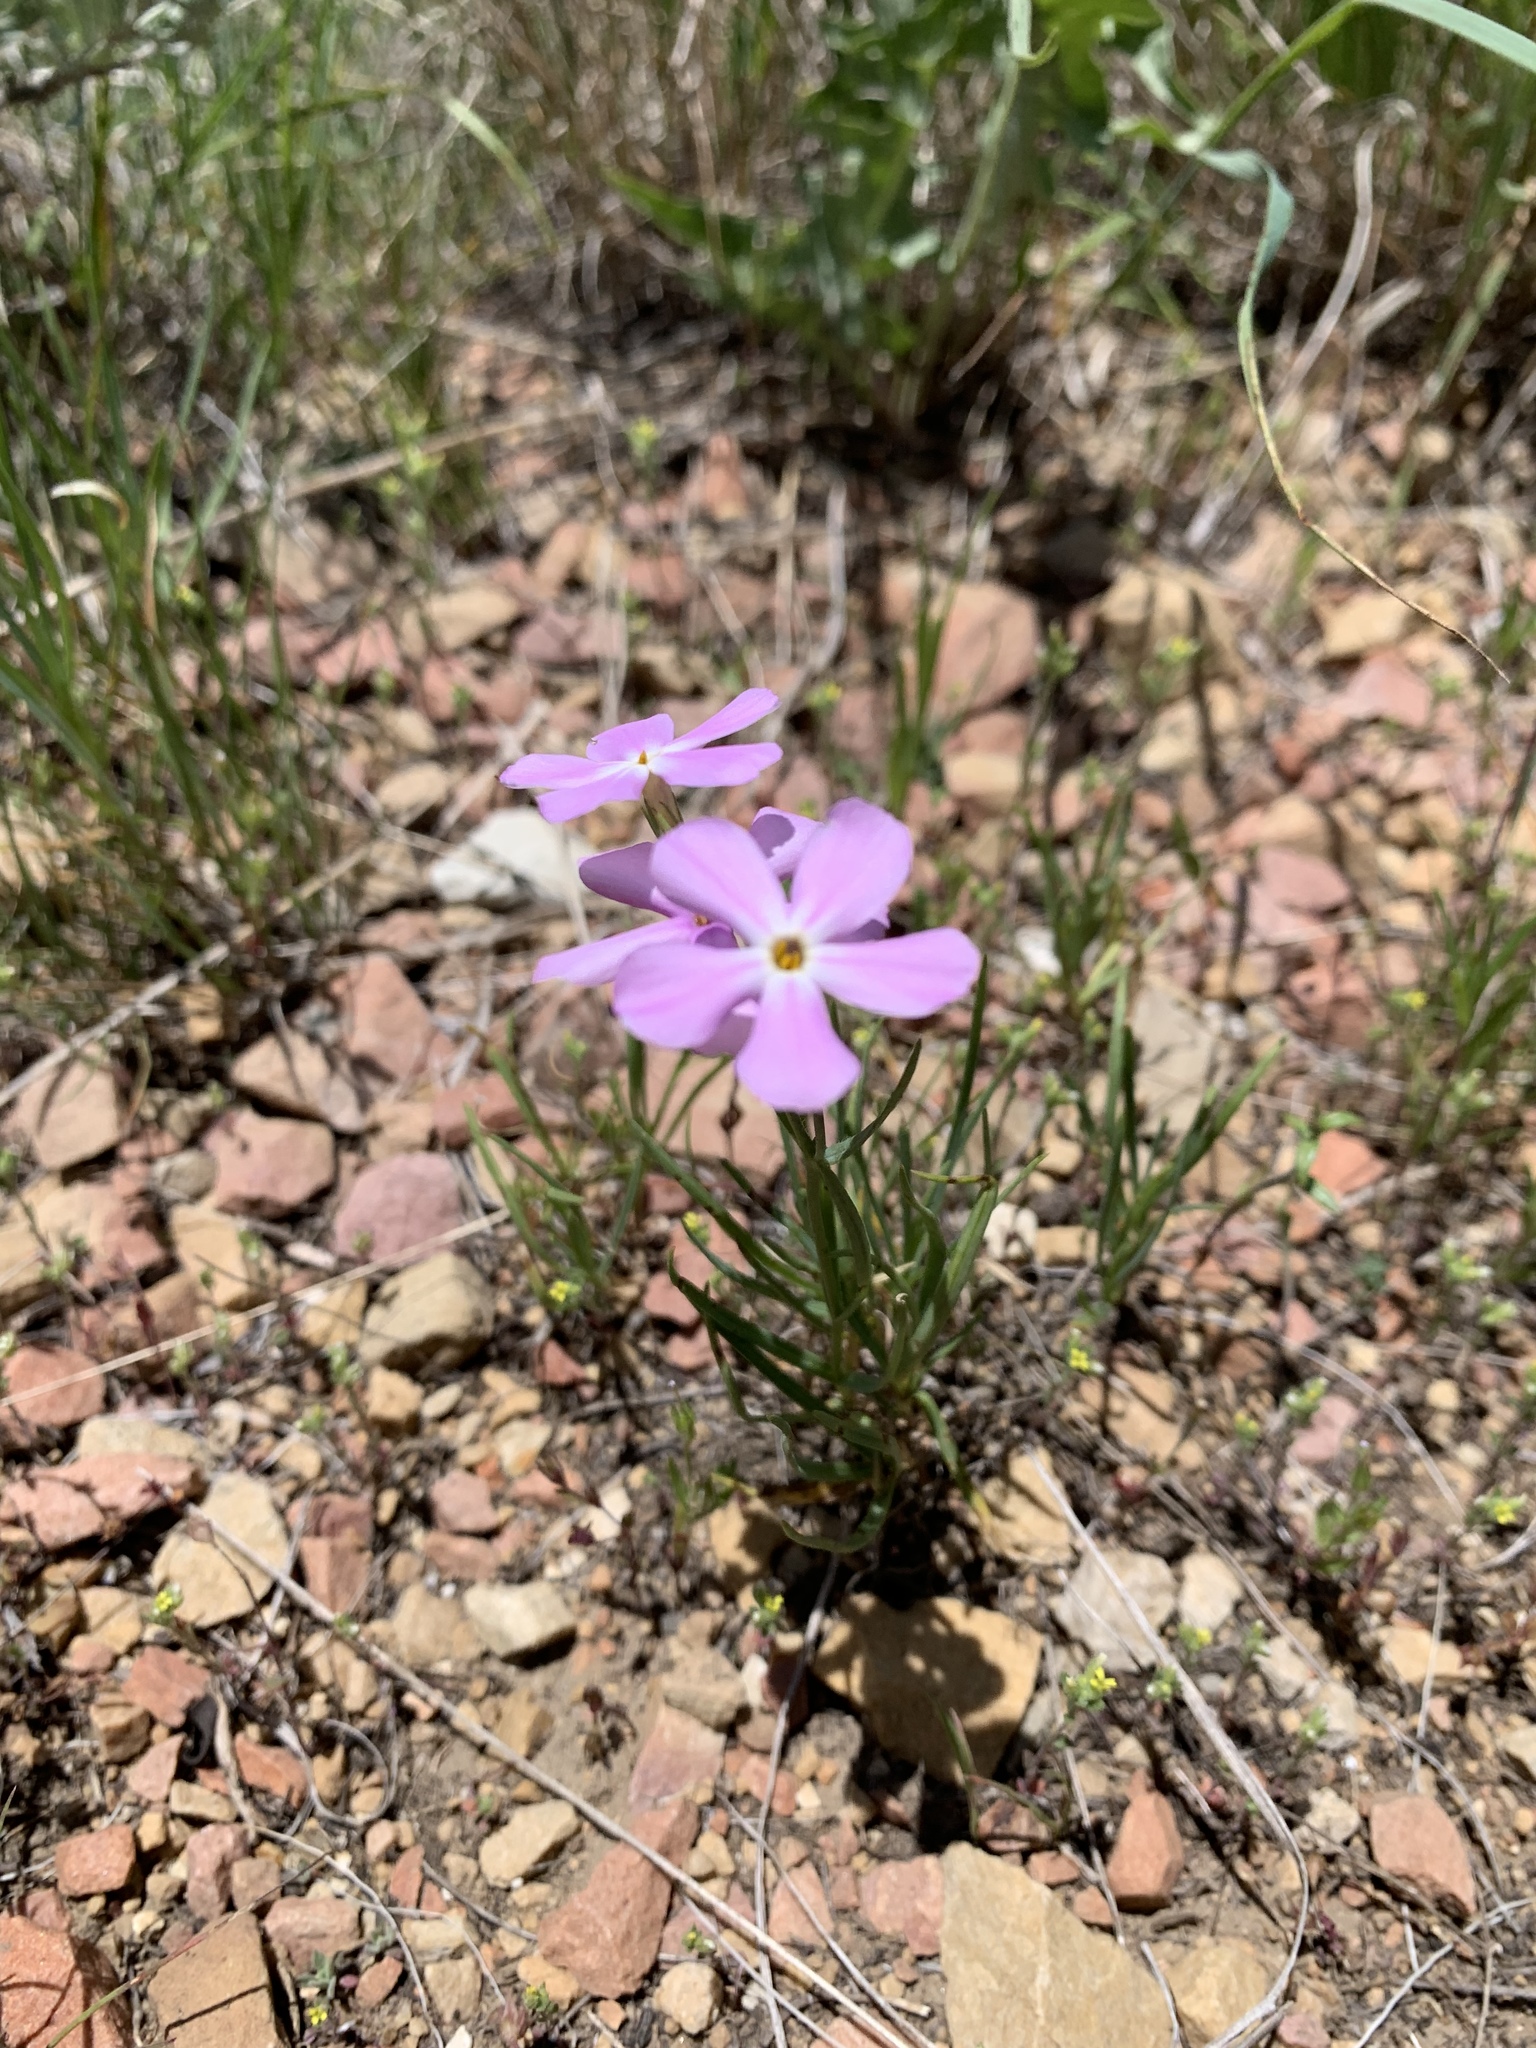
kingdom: Plantae
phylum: Tracheophyta
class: Magnoliopsida
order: Ericales
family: Polemoniaceae
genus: Phlox
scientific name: Phlox longifolia
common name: Longleaf phlox
